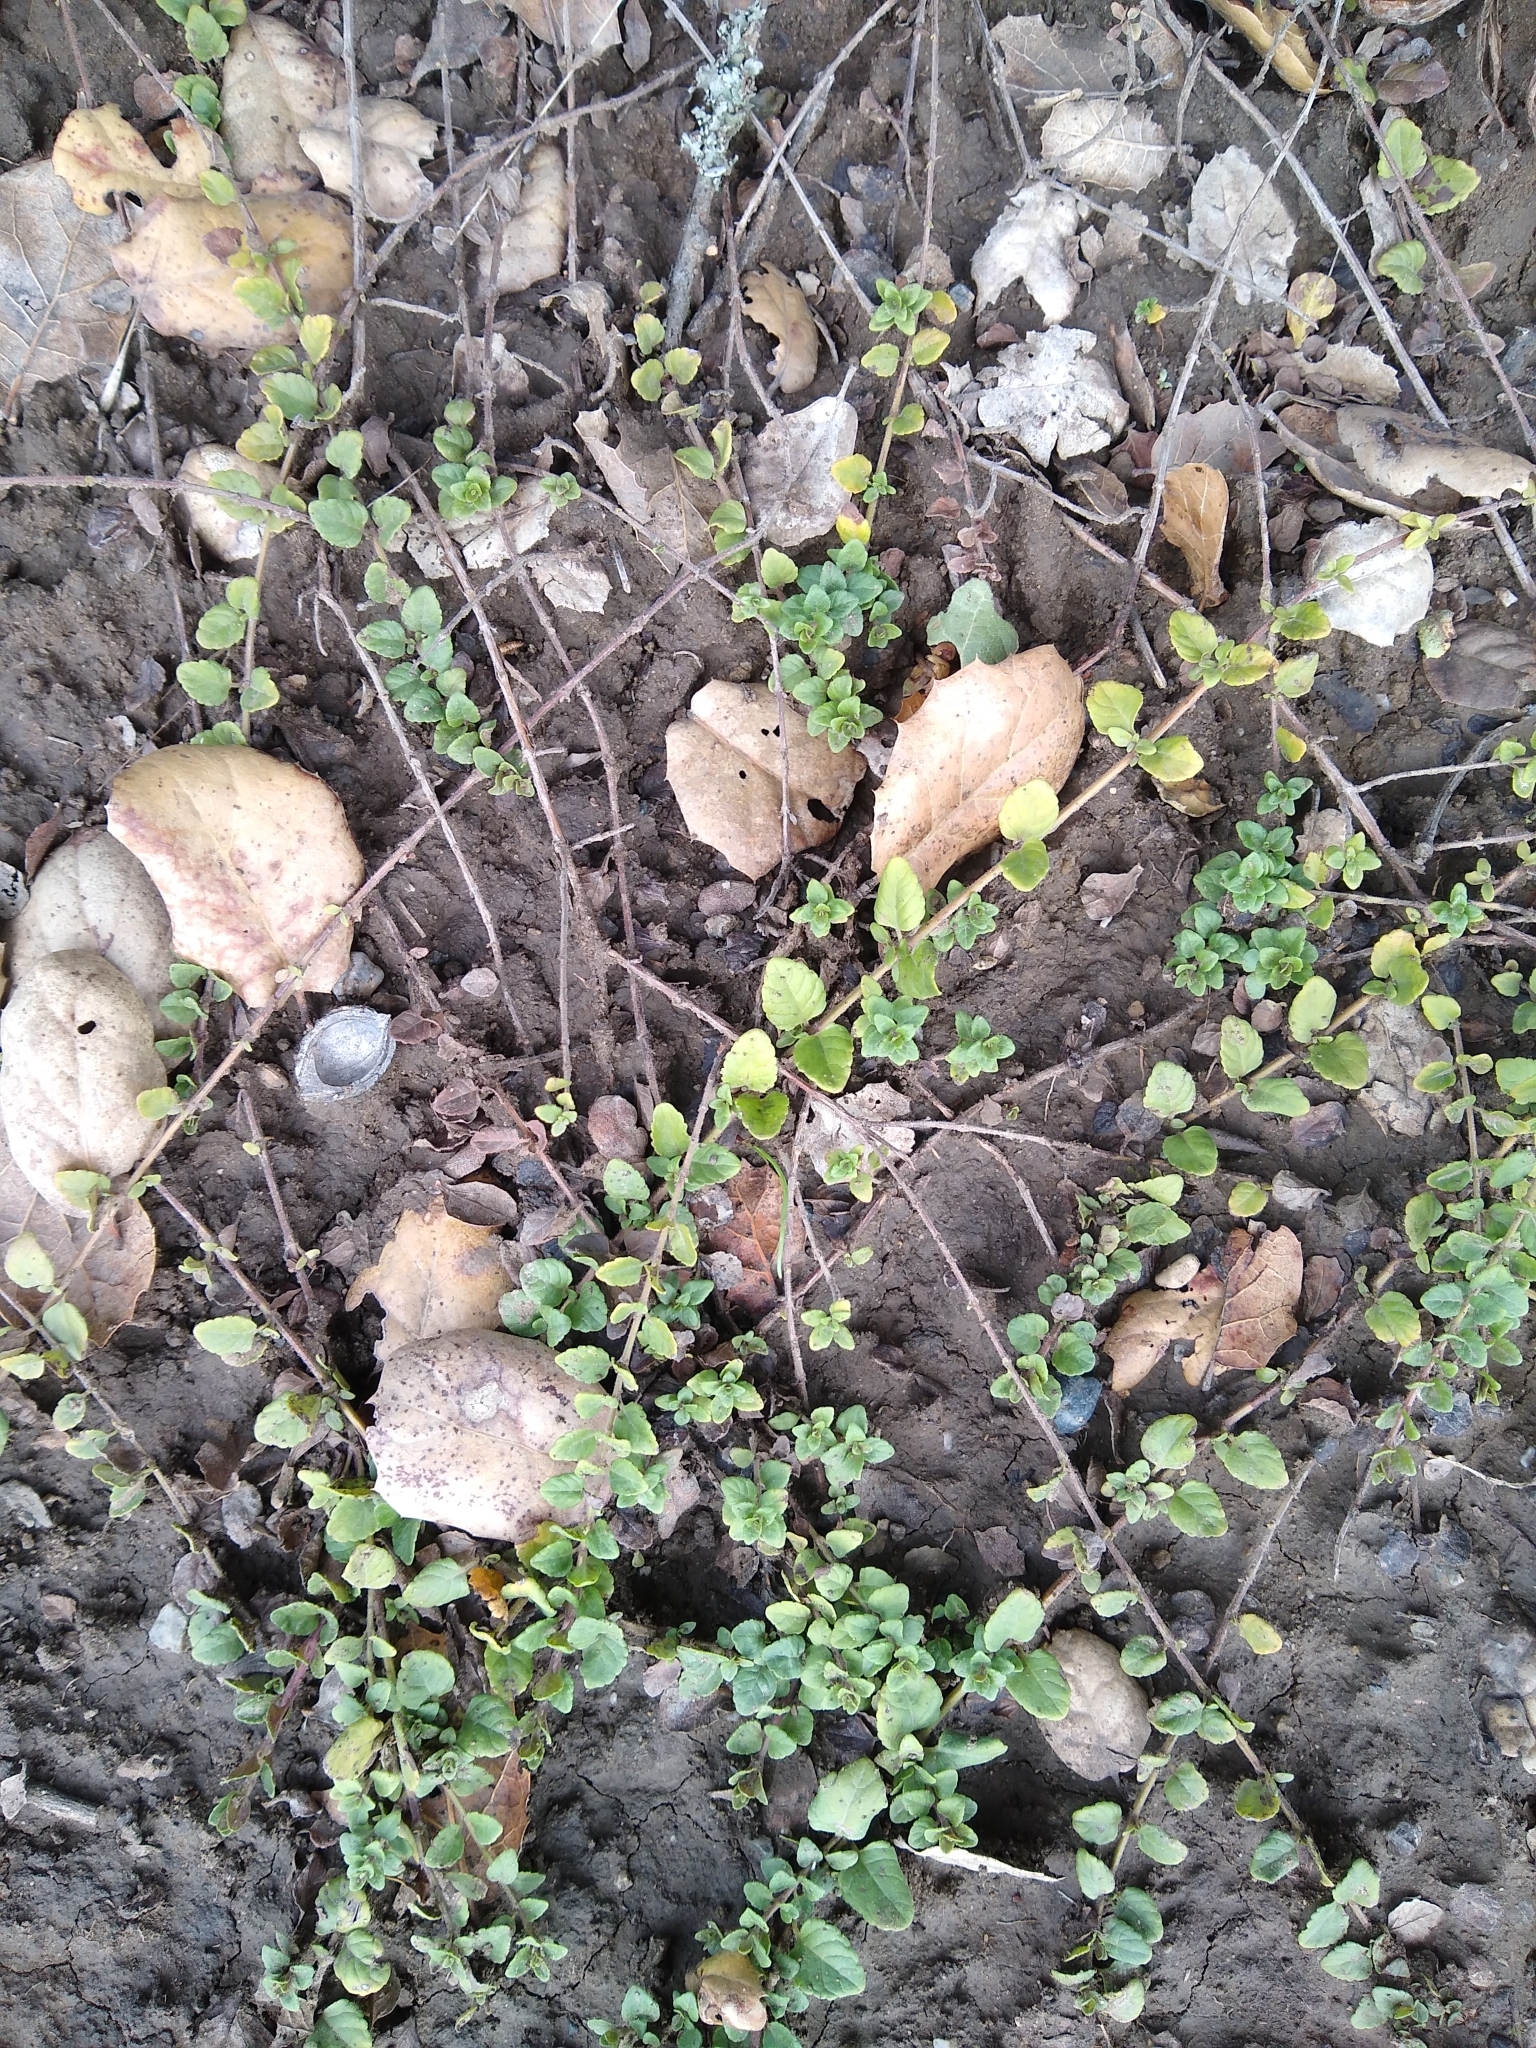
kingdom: Plantae
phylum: Tracheophyta
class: Magnoliopsida
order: Lamiales
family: Lamiaceae
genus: Micromeria
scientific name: Micromeria douglasii
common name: Yerba buena
